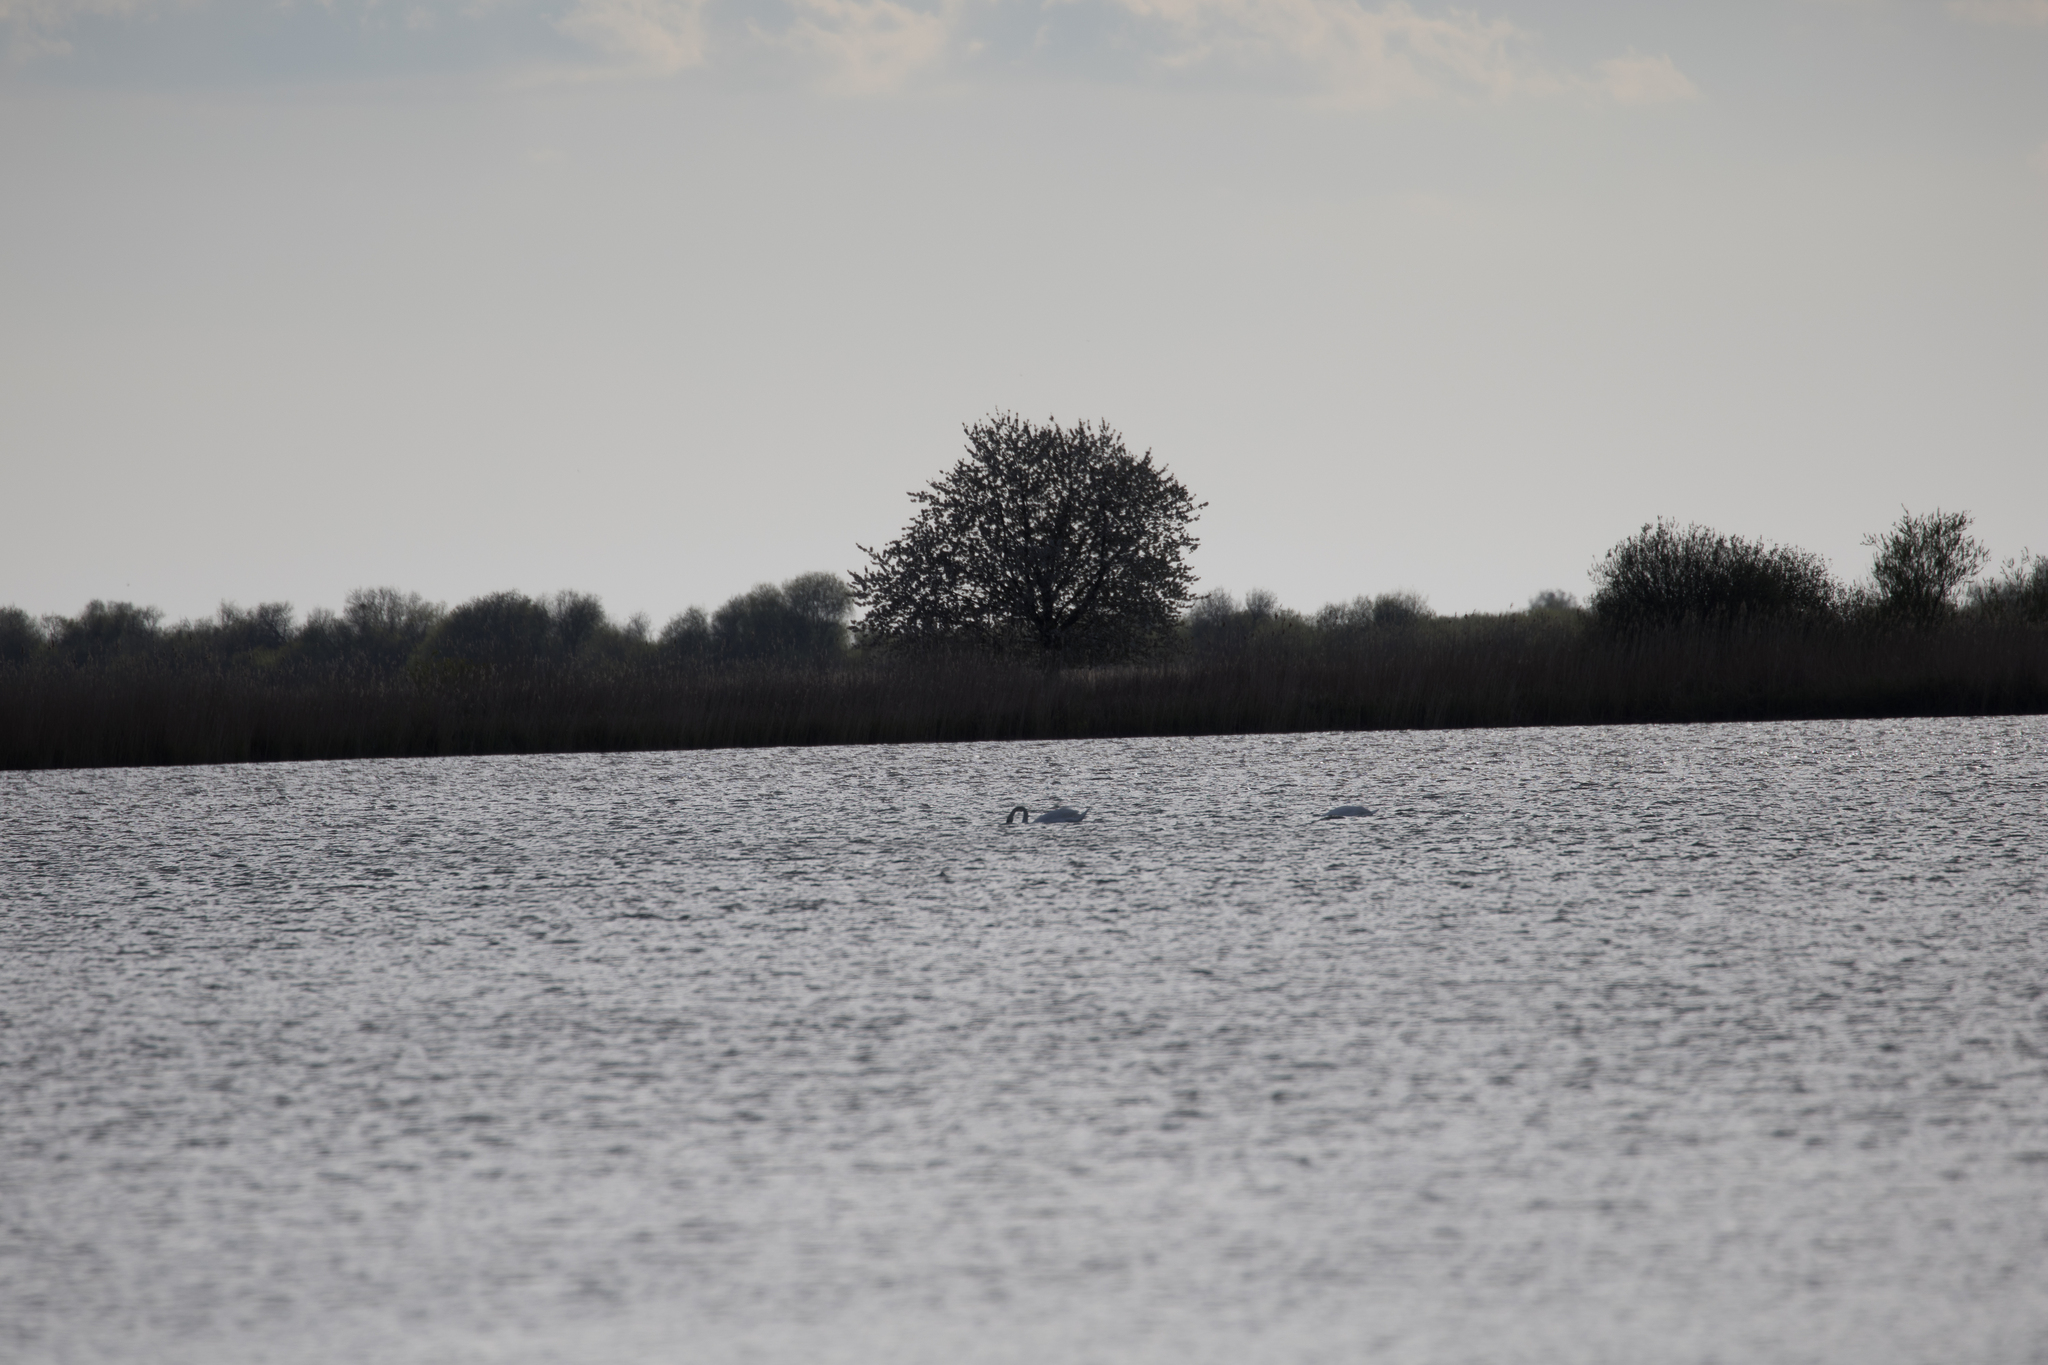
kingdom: Animalia
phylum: Chordata
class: Aves
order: Anseriformes
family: Anatidae
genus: Cygnus
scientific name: Cygnus olor
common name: Mute swan
